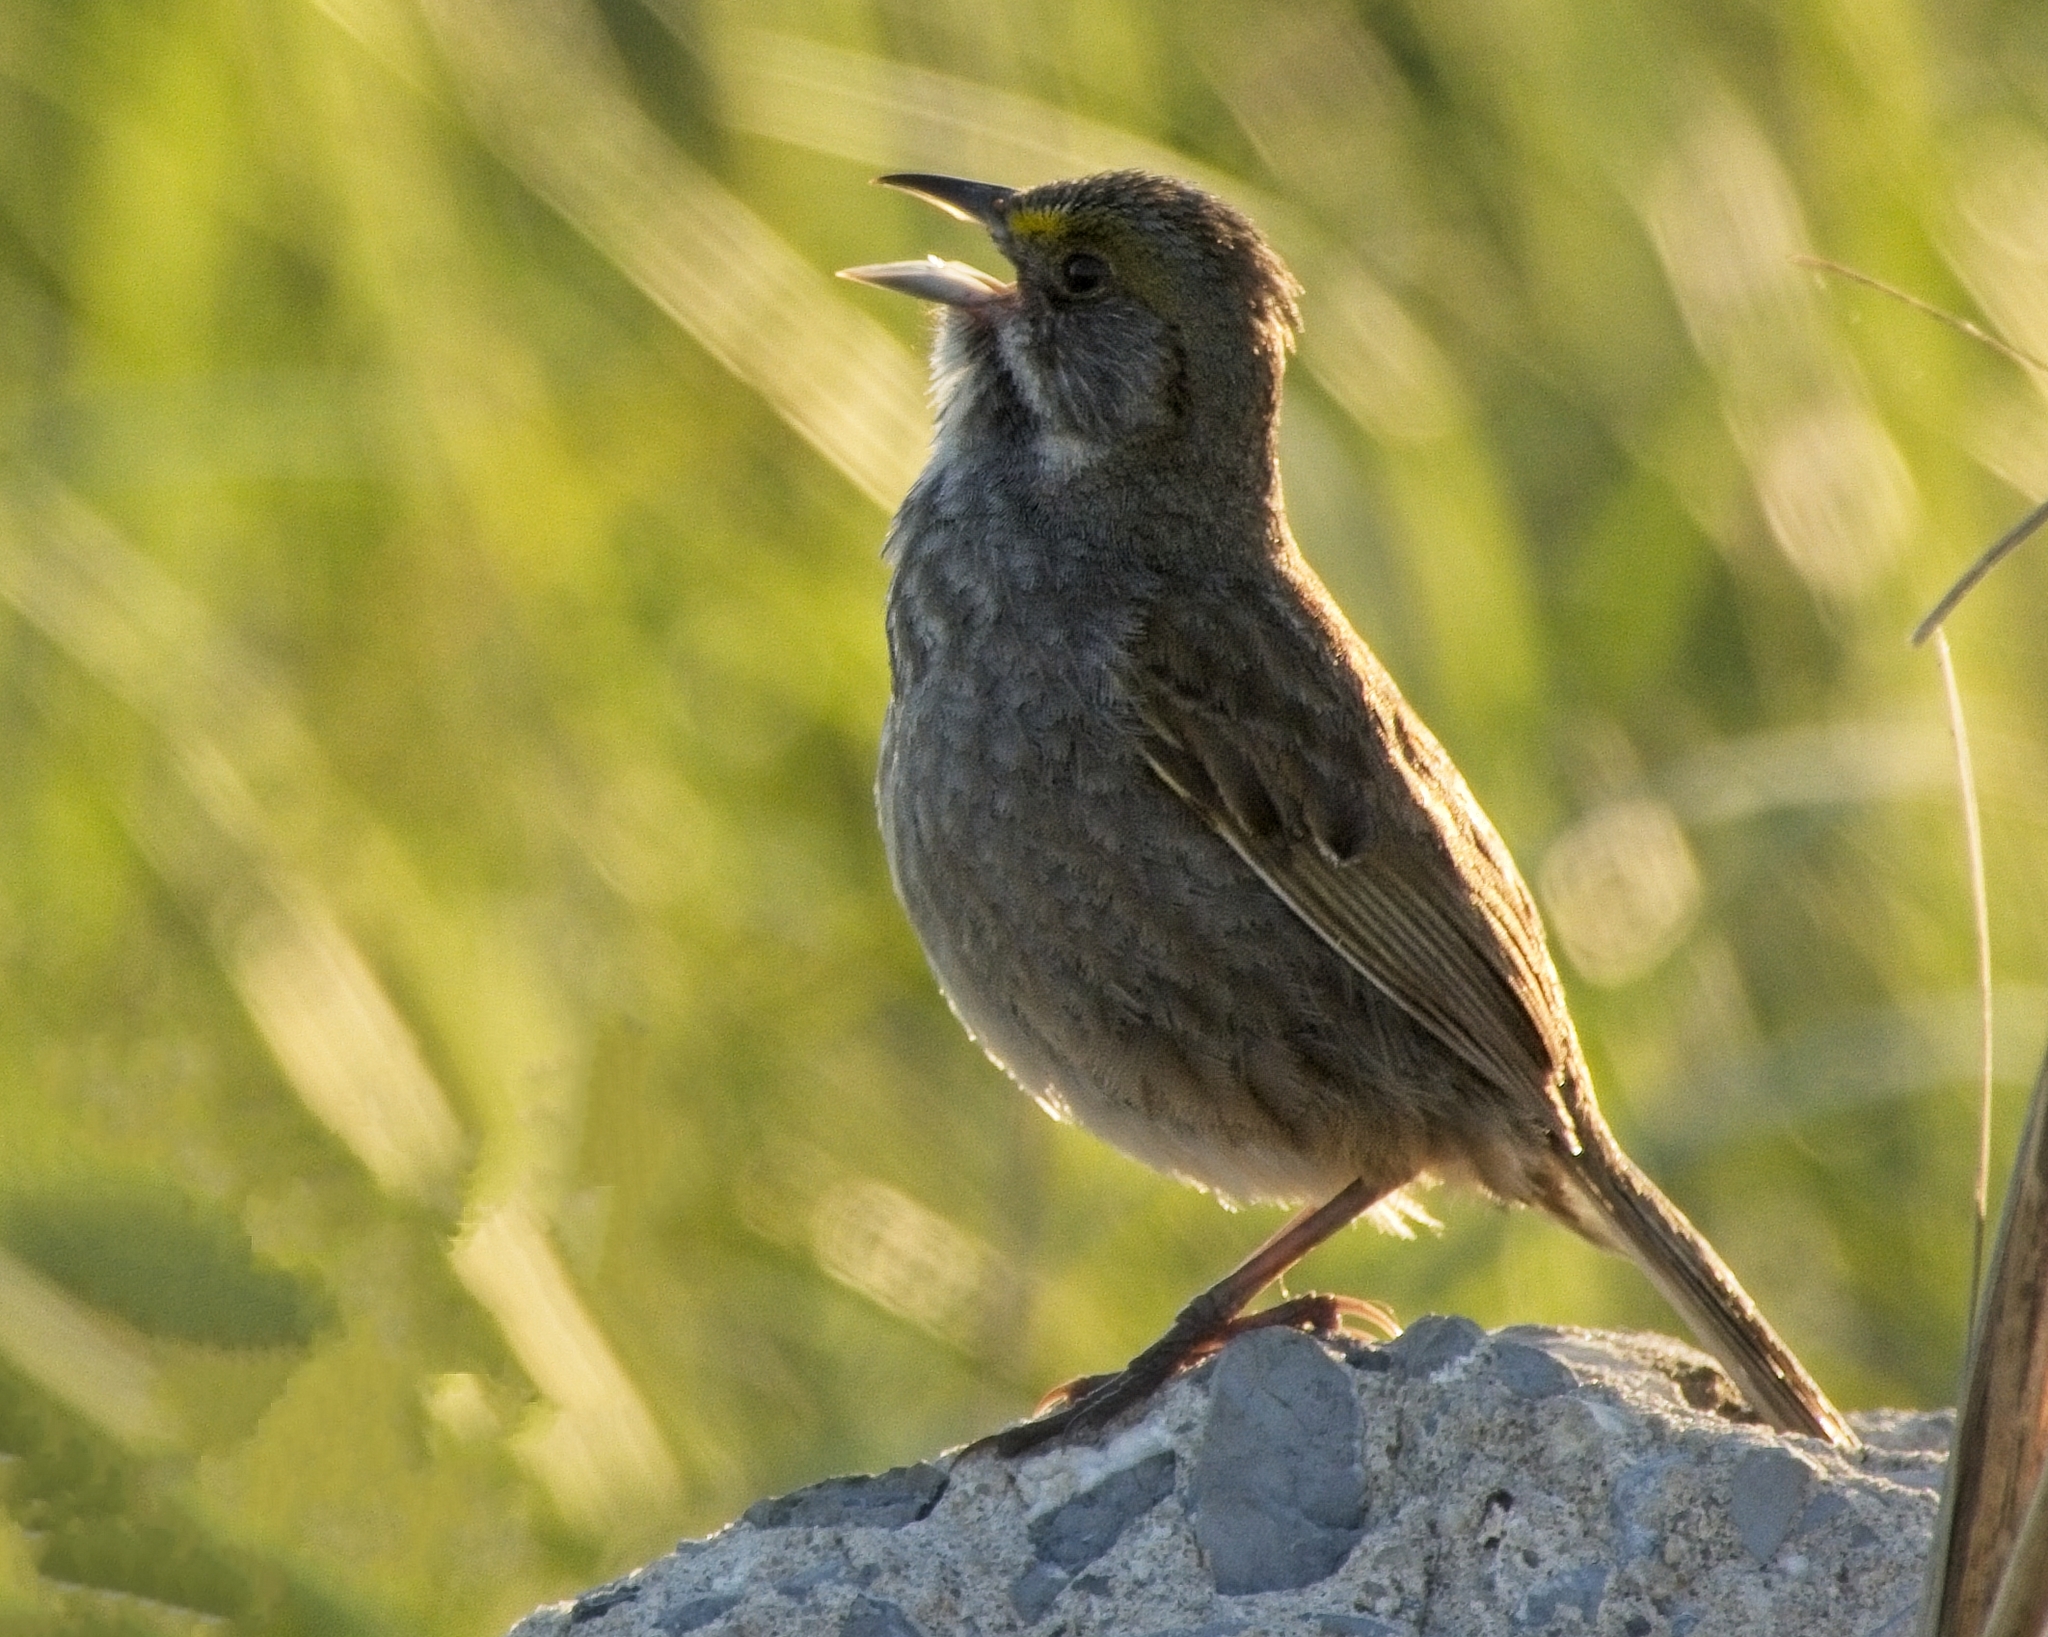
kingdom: Animalia
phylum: Chordata
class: Aves
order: Passeriformes
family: Passerellidae
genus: Ammospiza
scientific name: Ammospiza maritima
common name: Seaside sparrow
